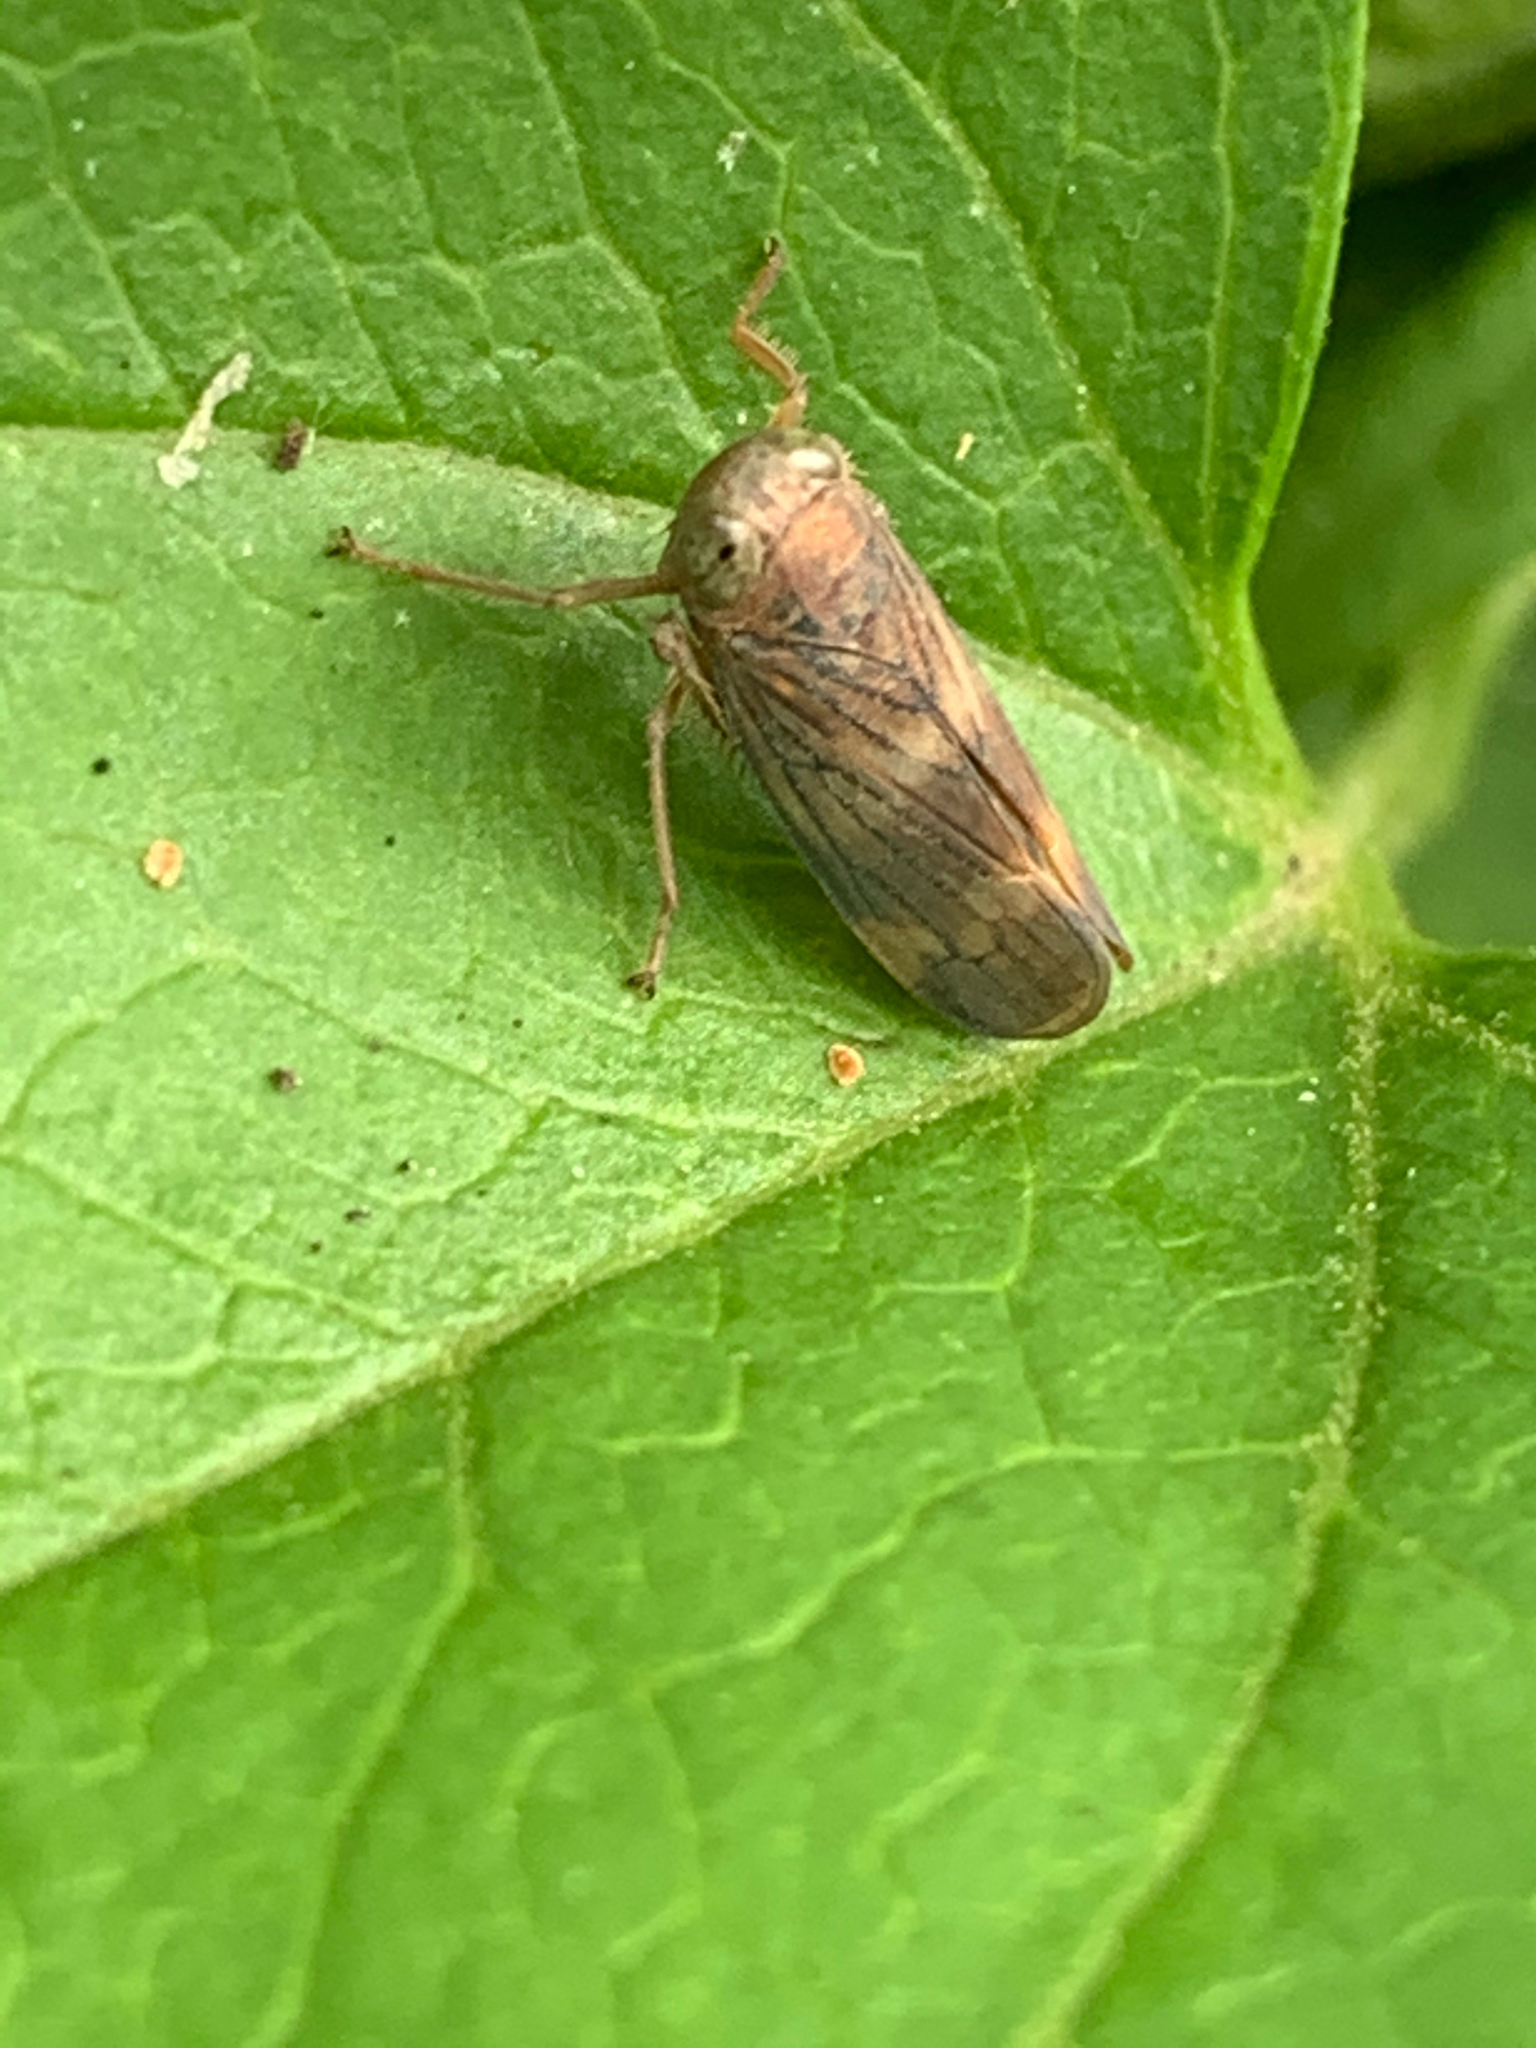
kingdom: Animalia
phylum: Arthropoda
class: Insecta
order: Hemiptera
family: Cicadellidae
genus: Jikradia
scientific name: Jikradia olitoria
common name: Coppery leafhopper
